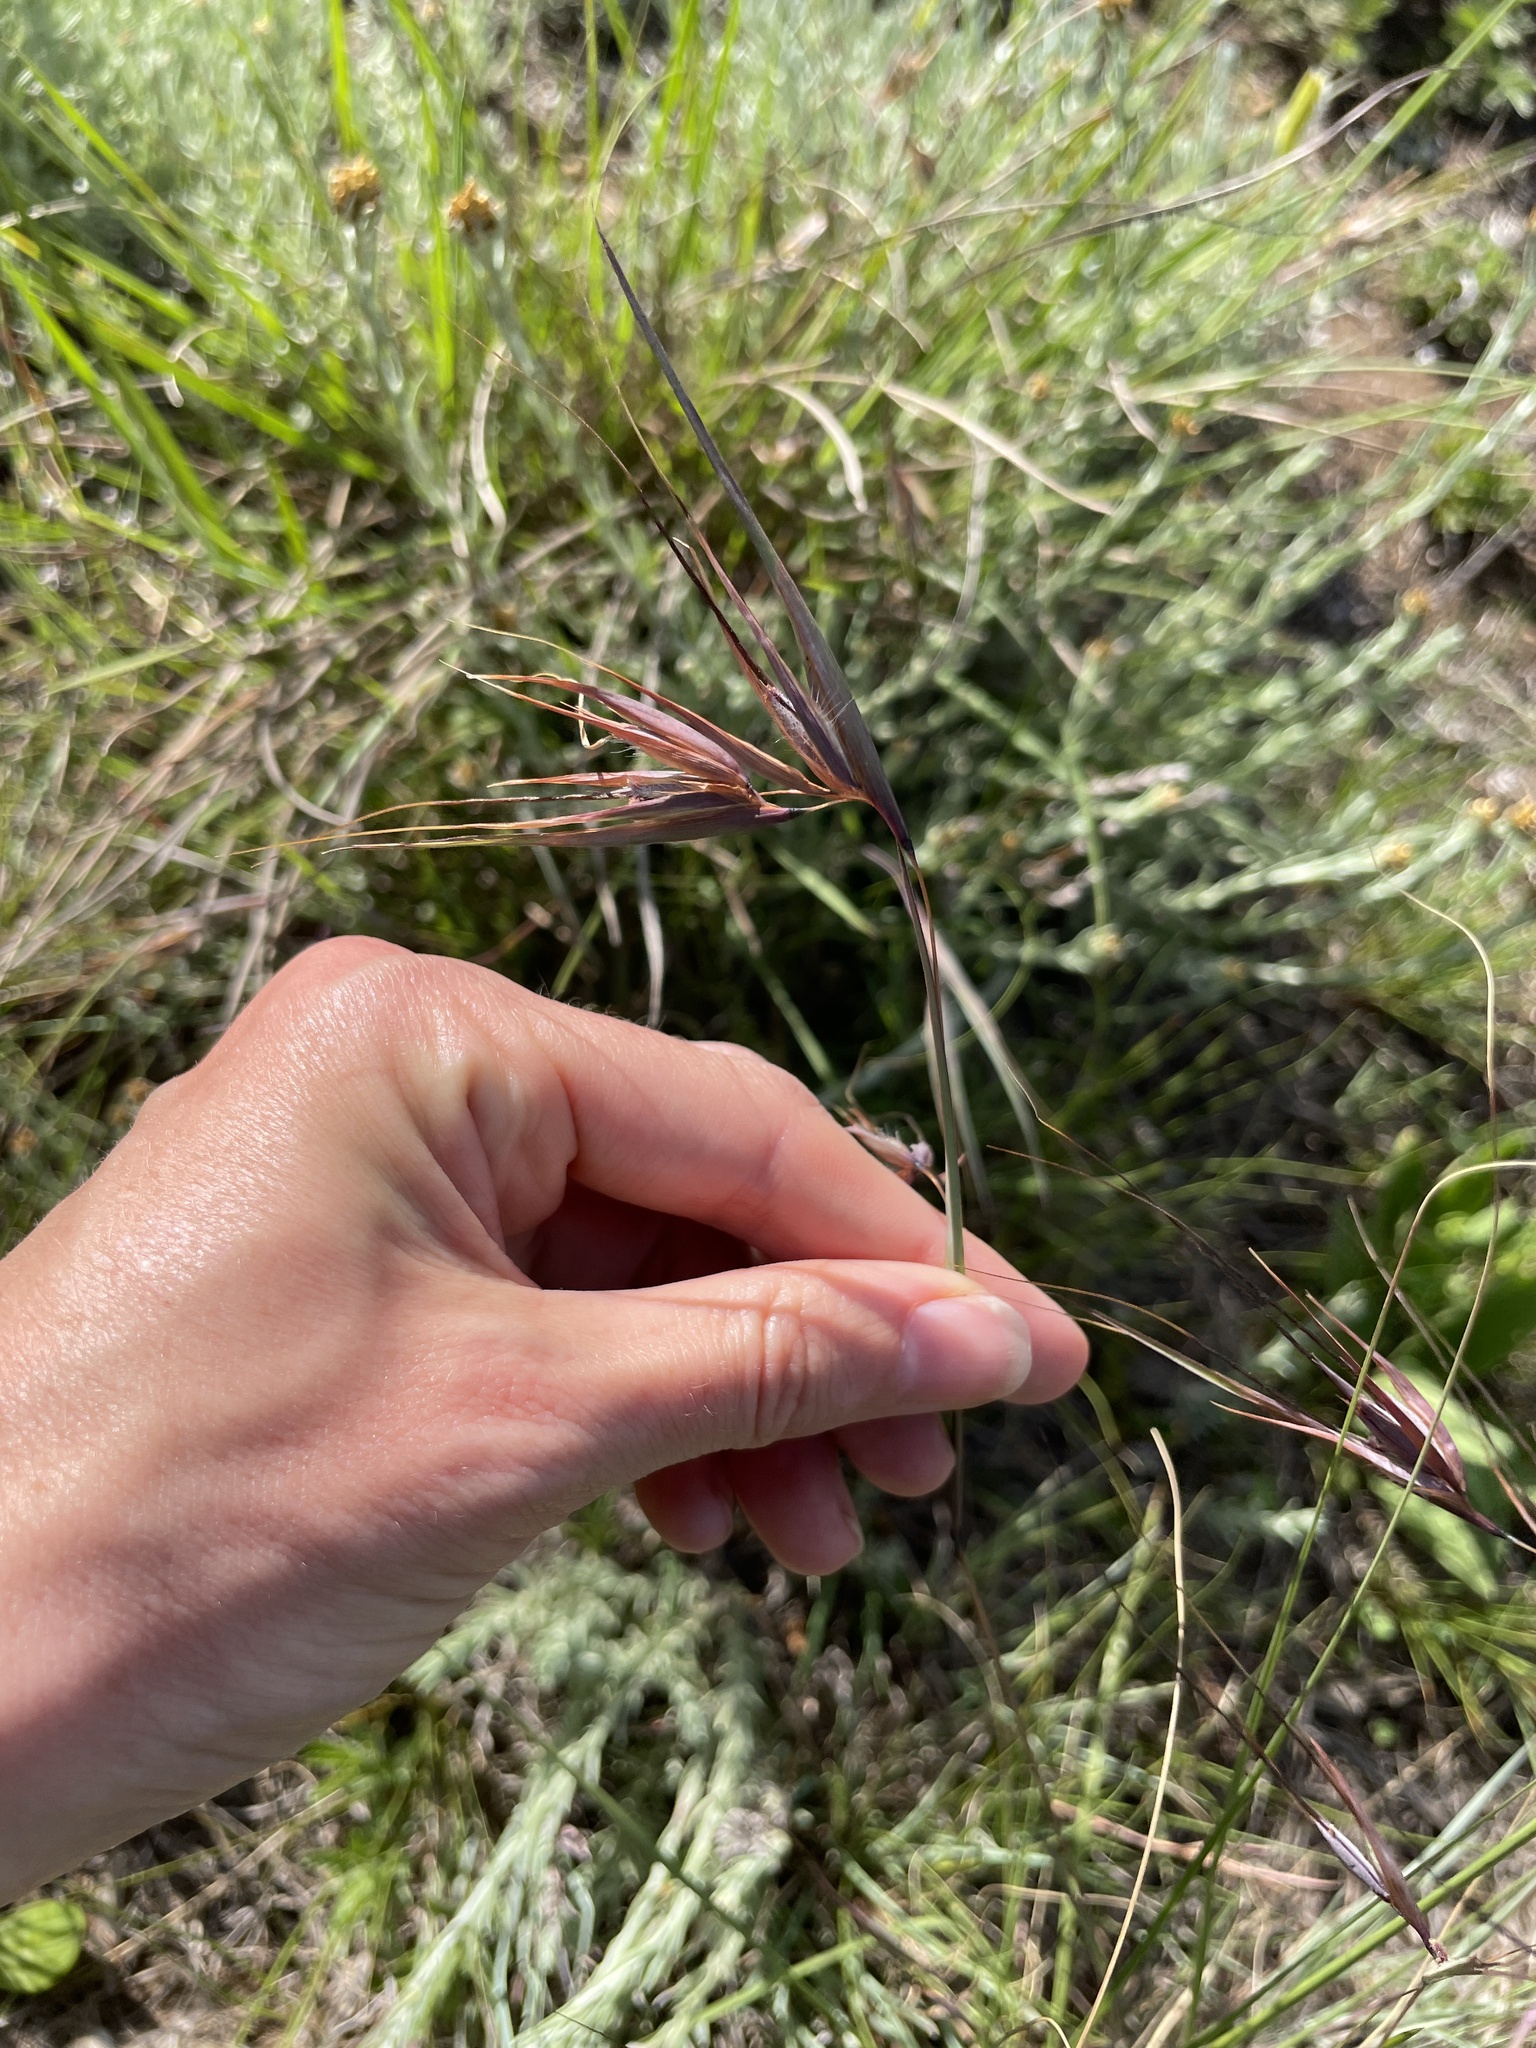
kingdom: Plantae
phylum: Tracheophyta
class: Liliopsida
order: Poales
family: Poaceae
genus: Themeda
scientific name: Themeda triandra
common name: Kangaroo grass
